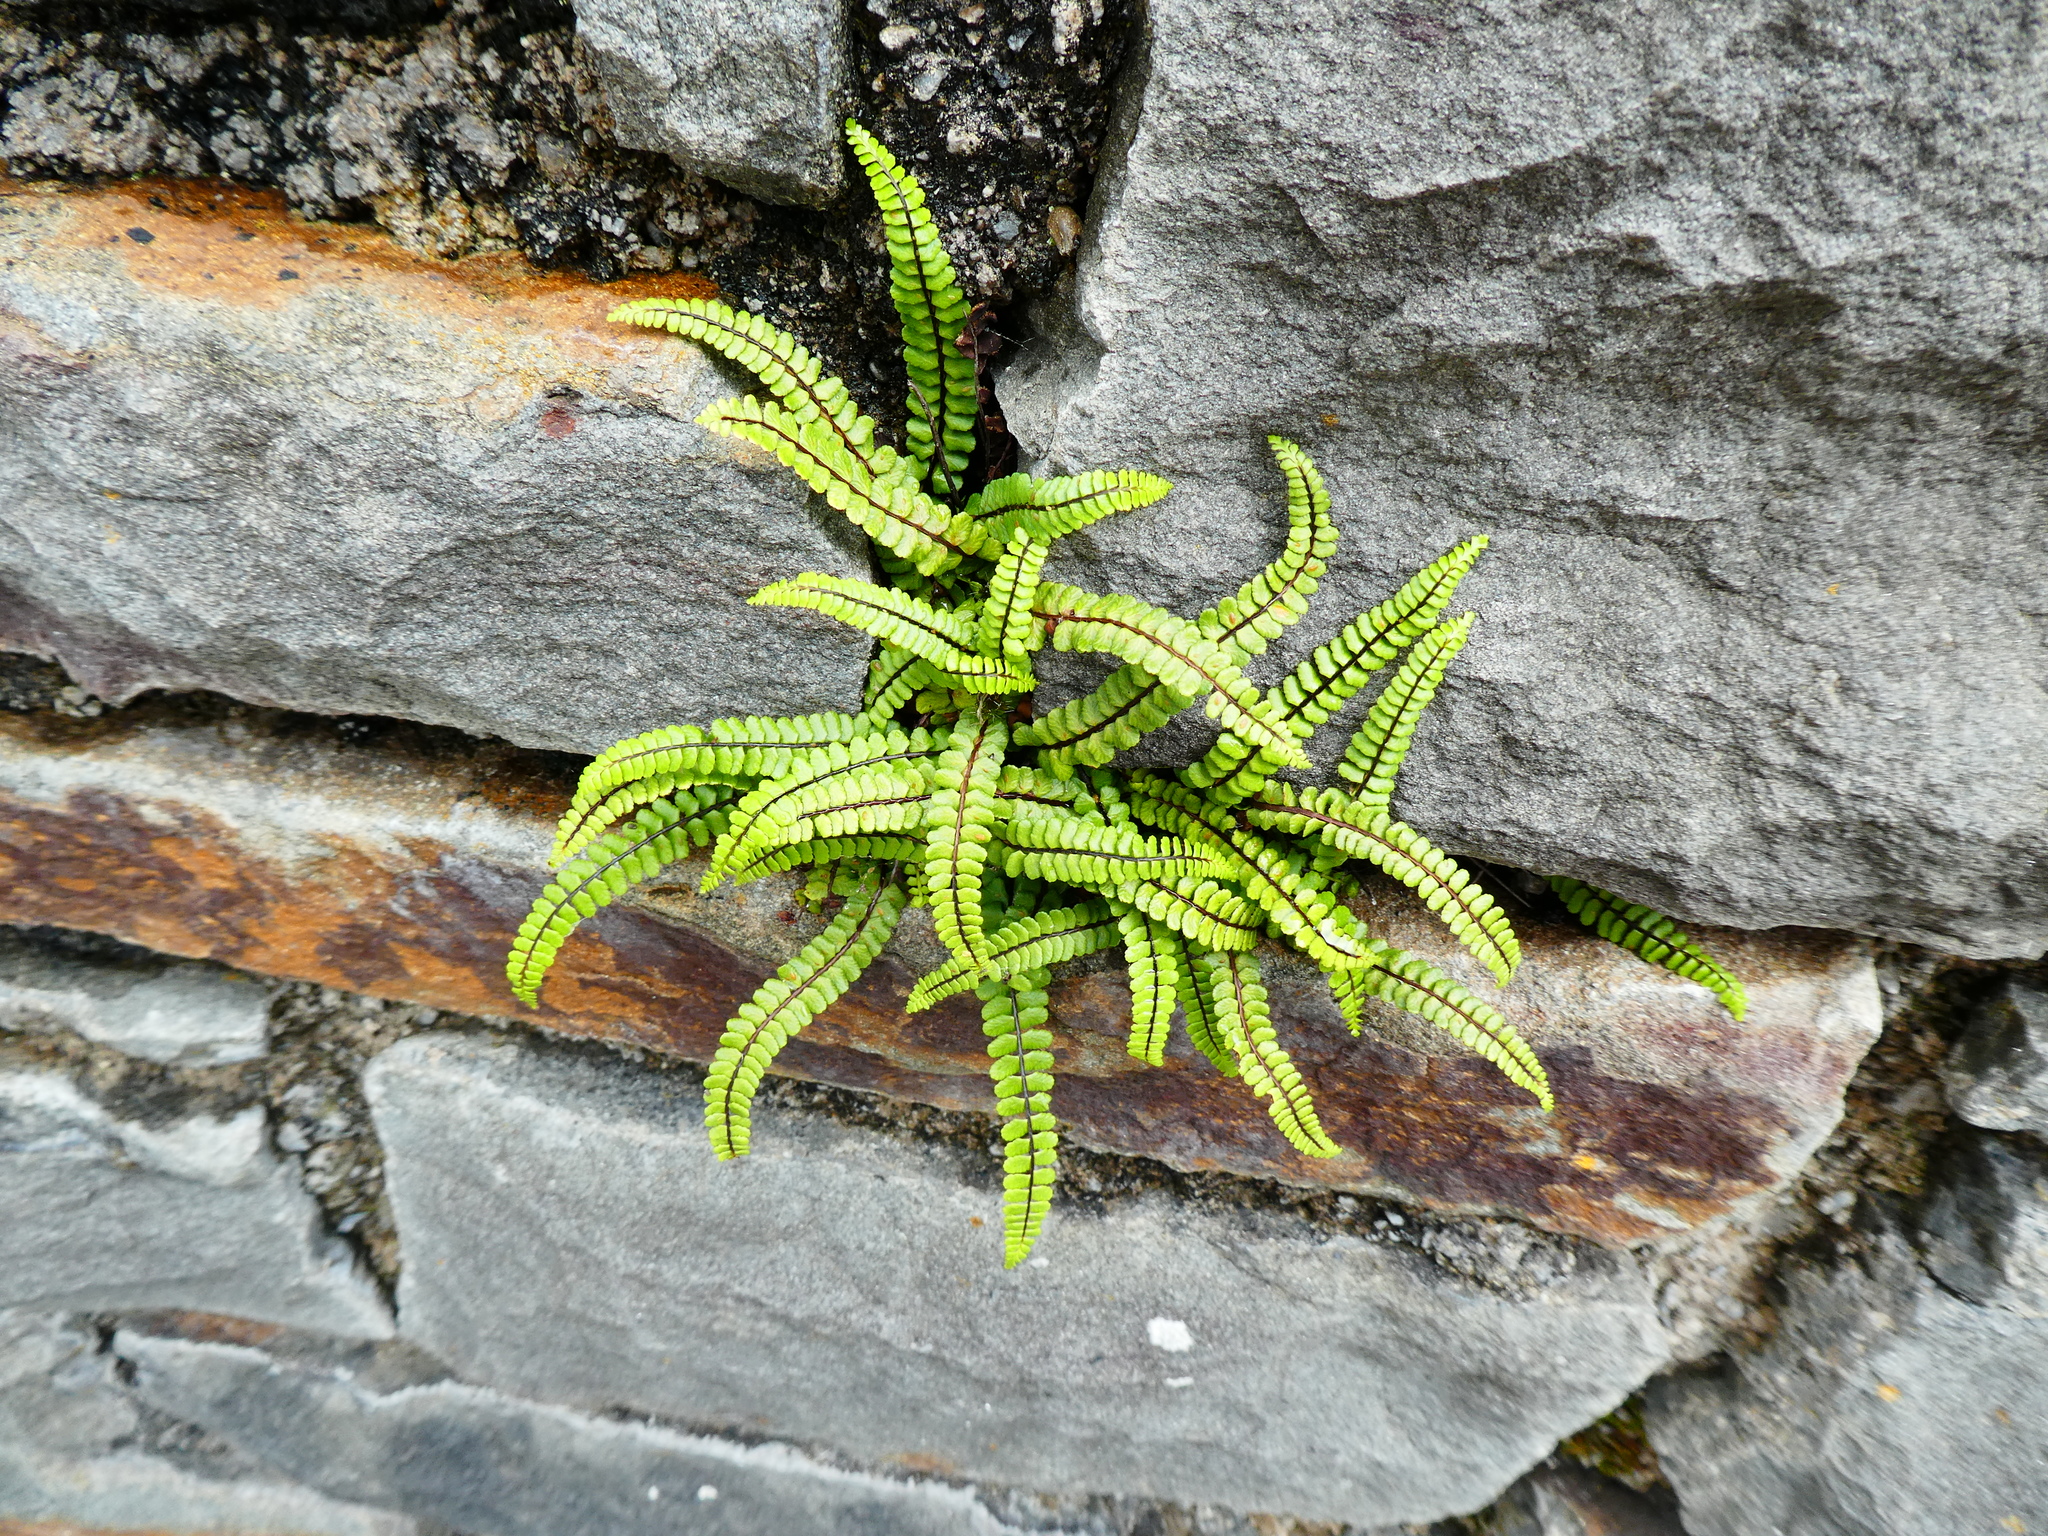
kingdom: Plantae
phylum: Tracheophyta
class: Polypodiopsida
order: Polypodiales
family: Aspleniaceae
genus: Asplenium
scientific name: Asplenium trichomanes
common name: Maidenhair spleenwort
